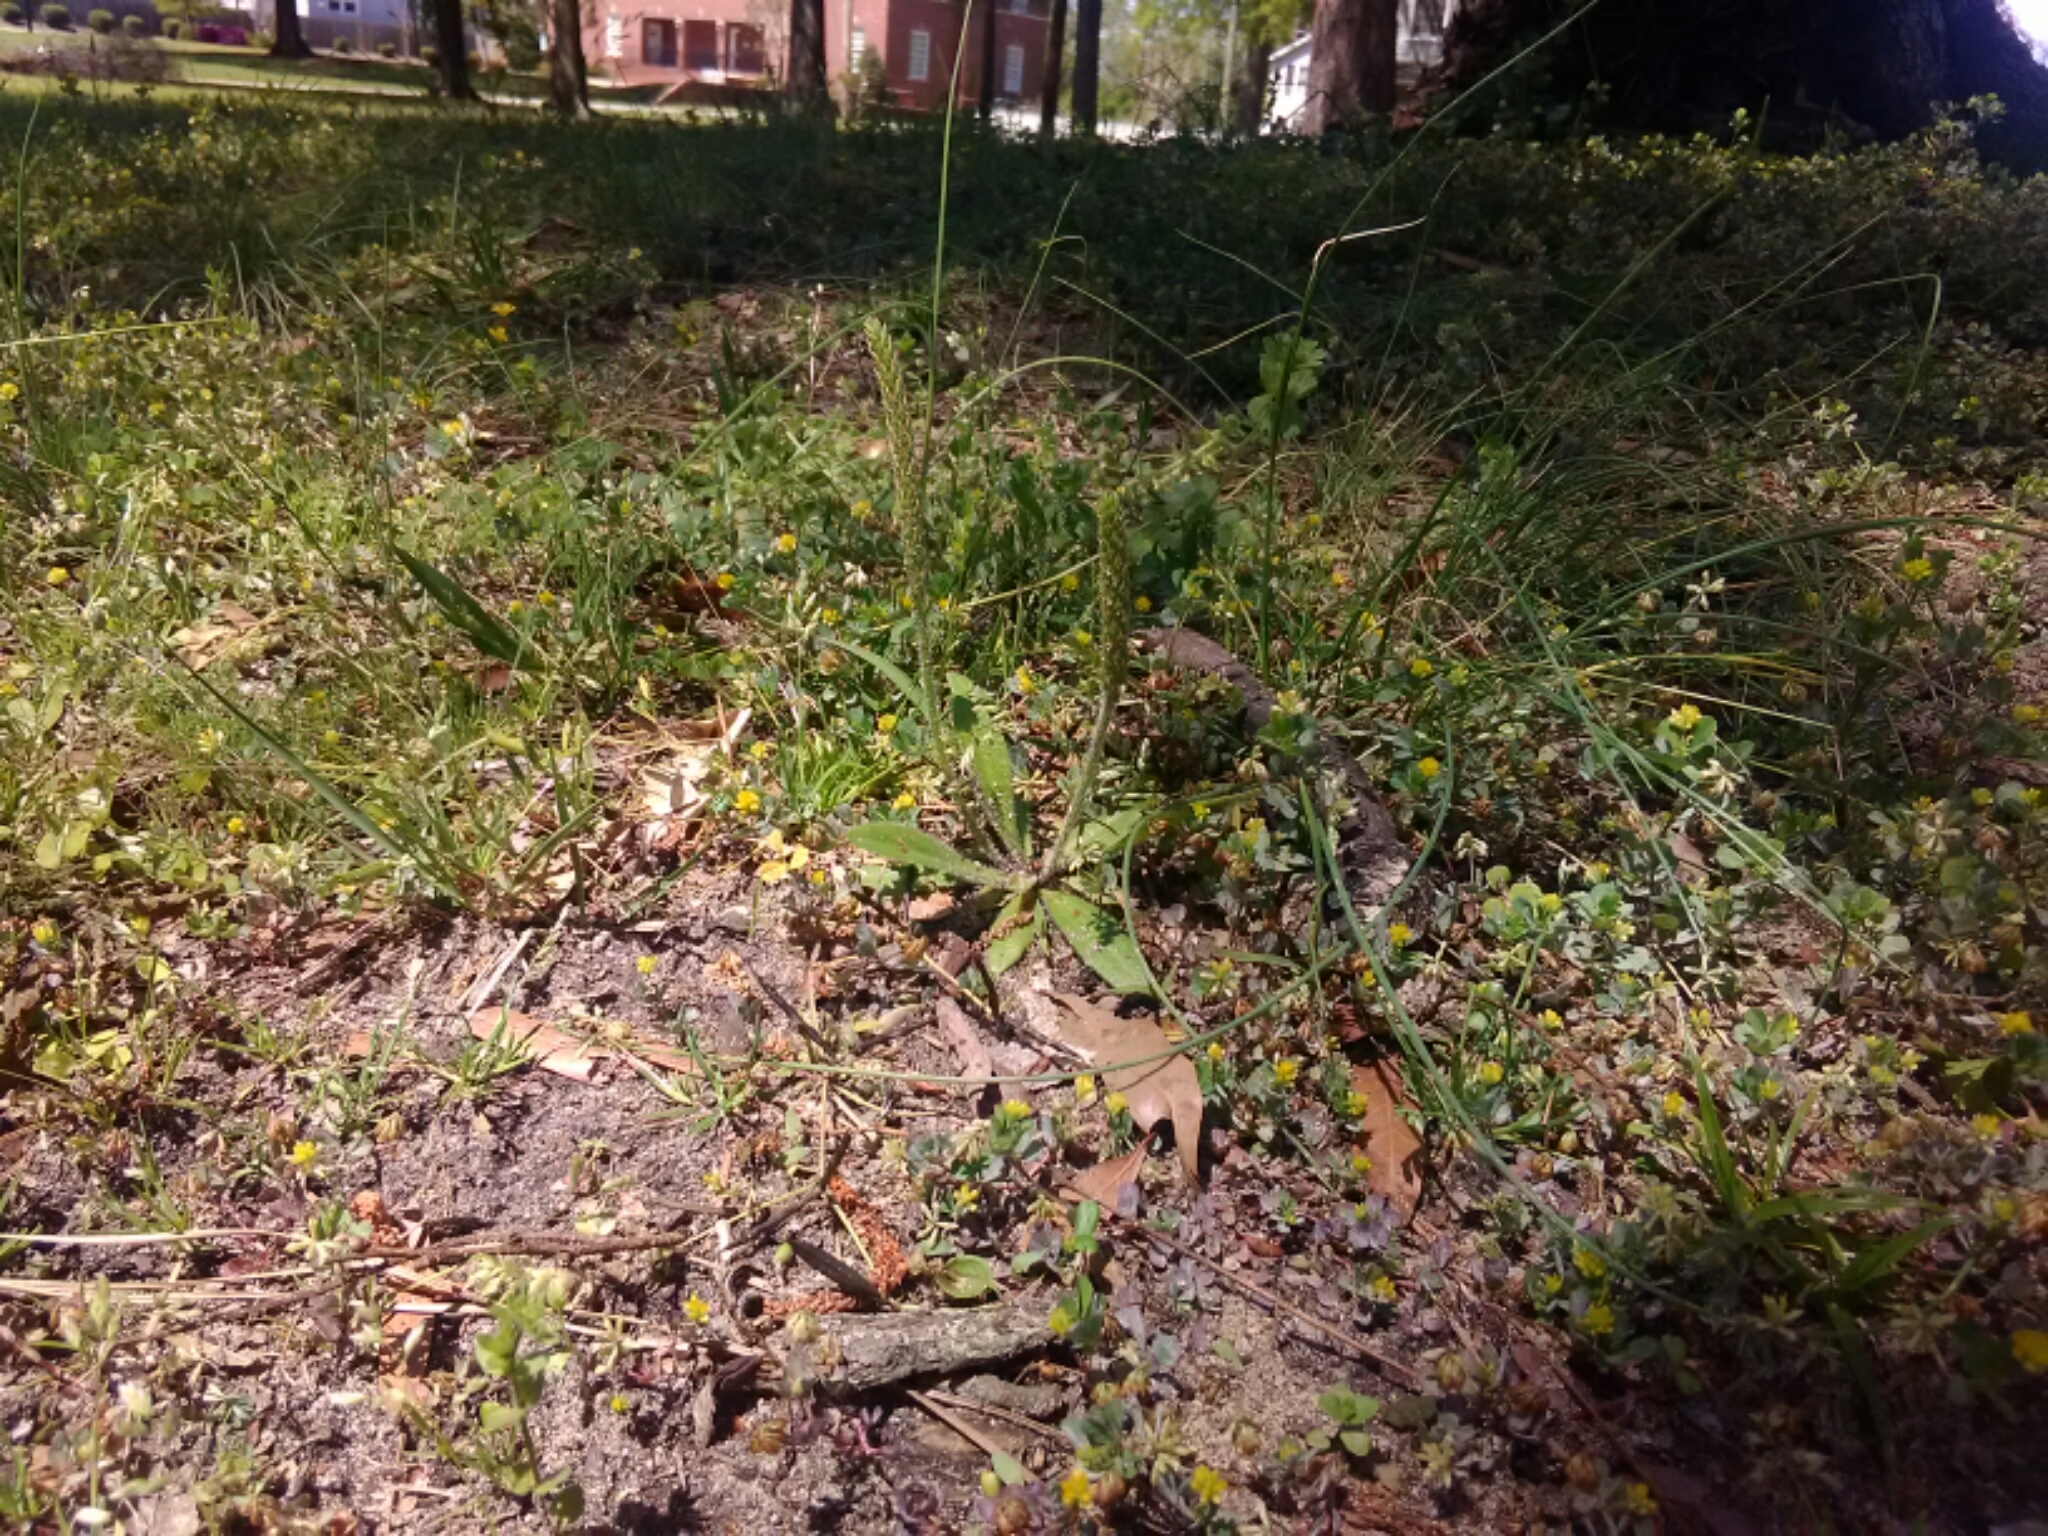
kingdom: Plantae
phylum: Tracheophyta
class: Magnoliopsida
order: Lamiales
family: Plantaginaceae
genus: Plantago
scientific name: Plantago major
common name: Common plantain
